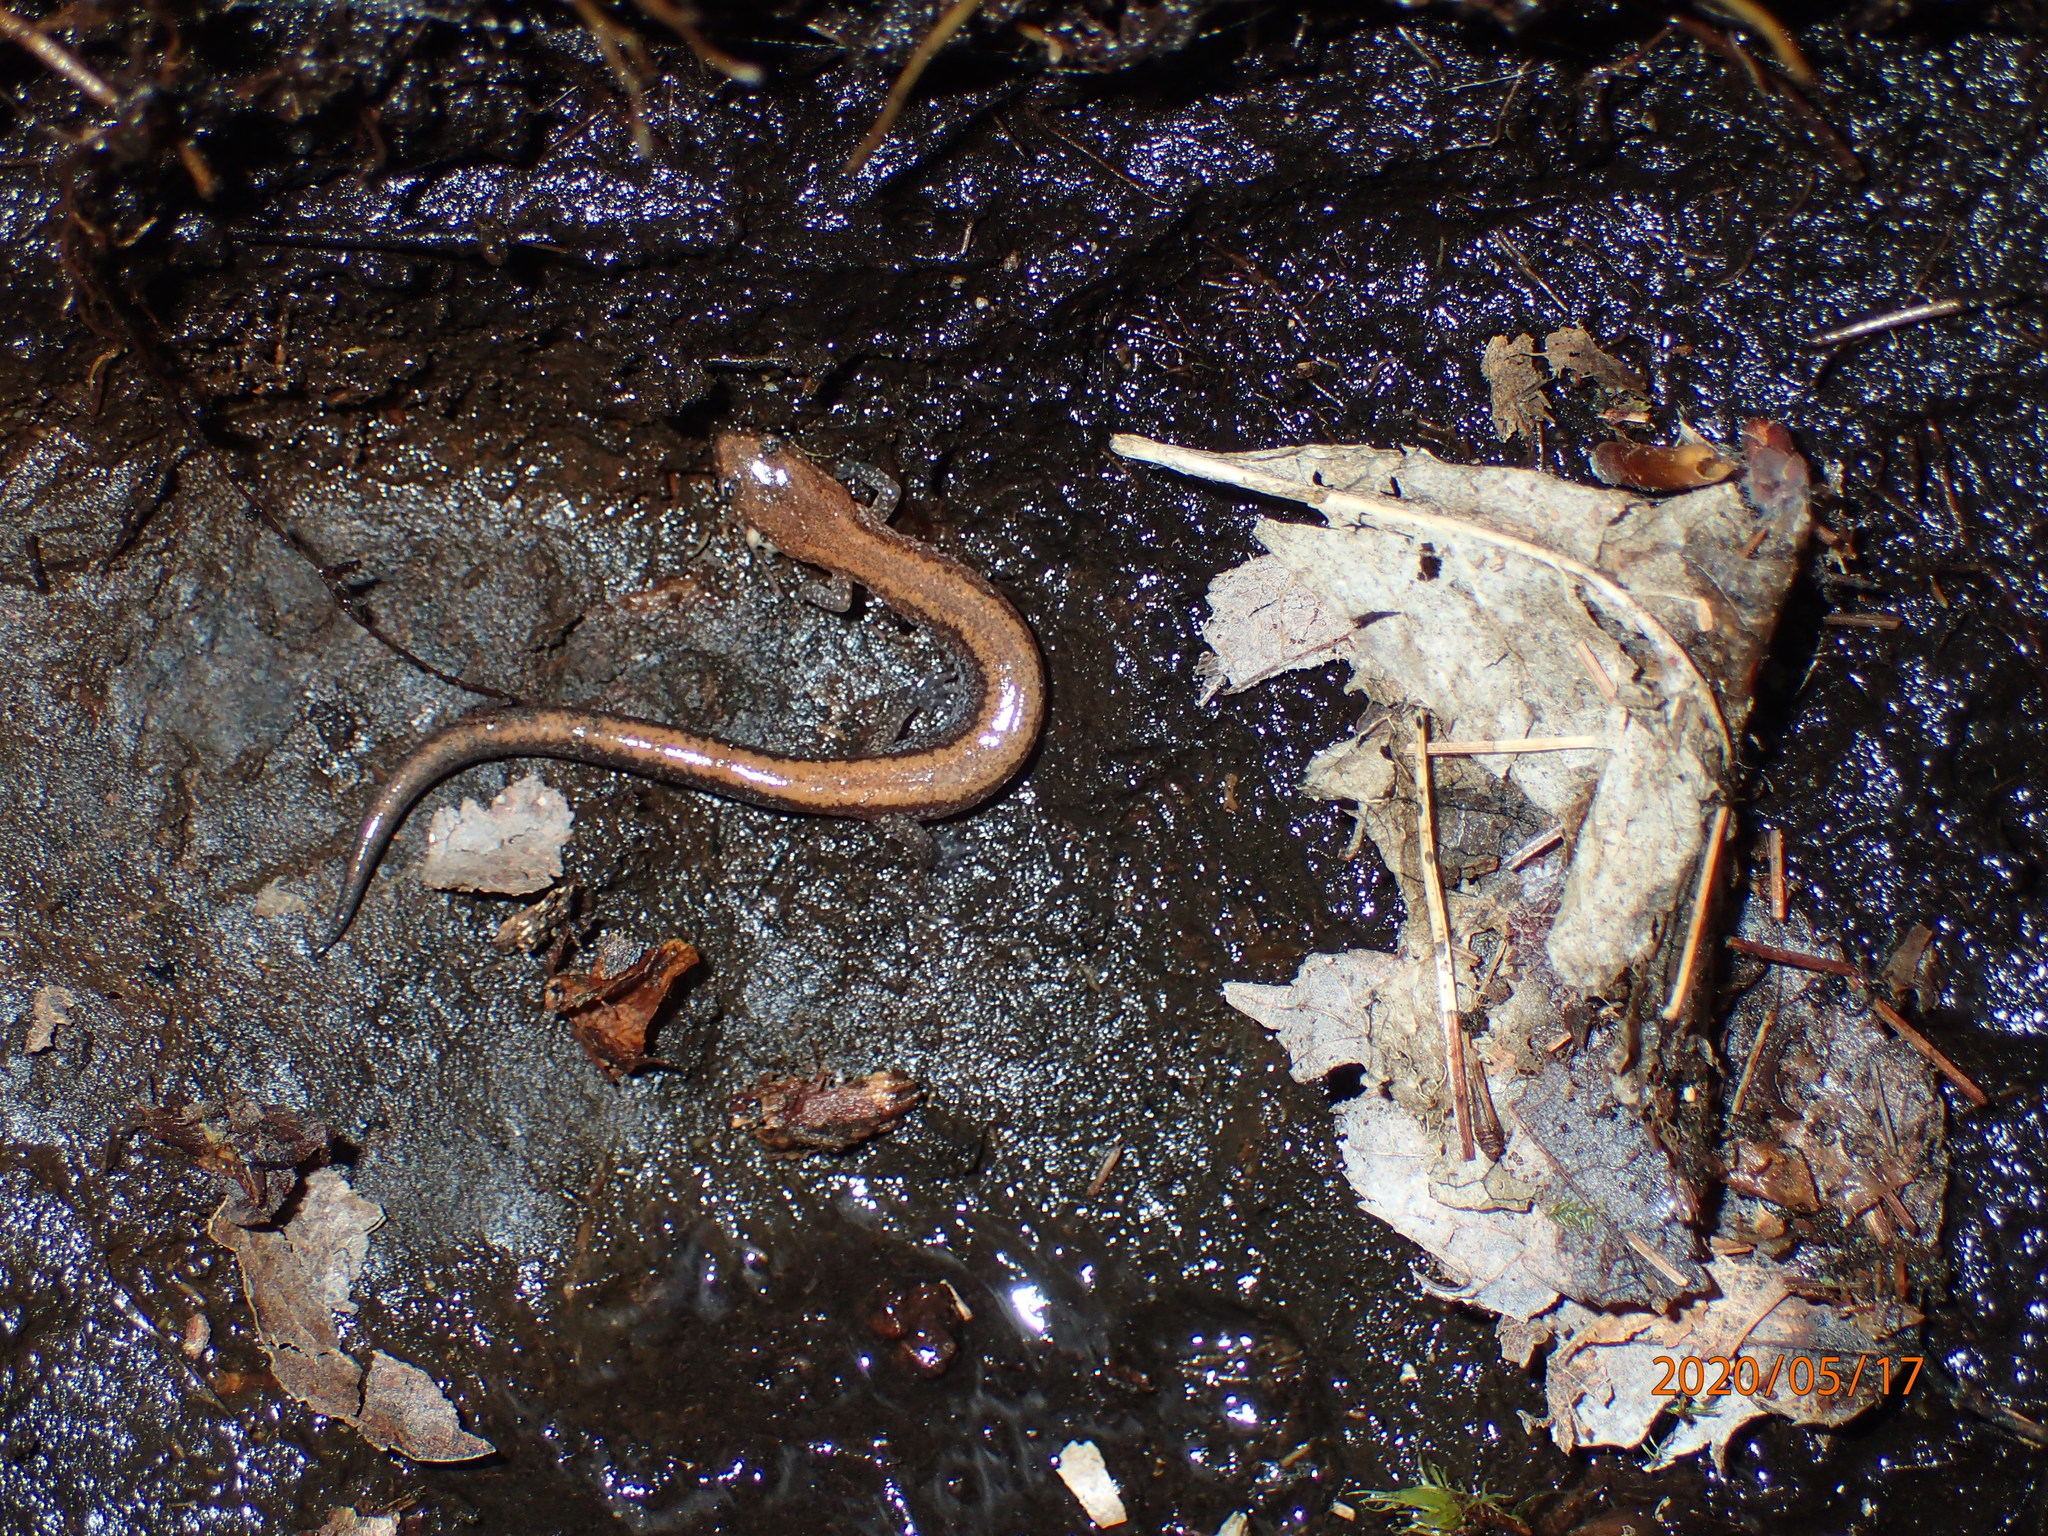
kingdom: Animalia
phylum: Chordata
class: Amphibia
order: Caudata
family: Plethodontidae
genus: Plethodon
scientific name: Plethodon cinereus
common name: Redback salamander
